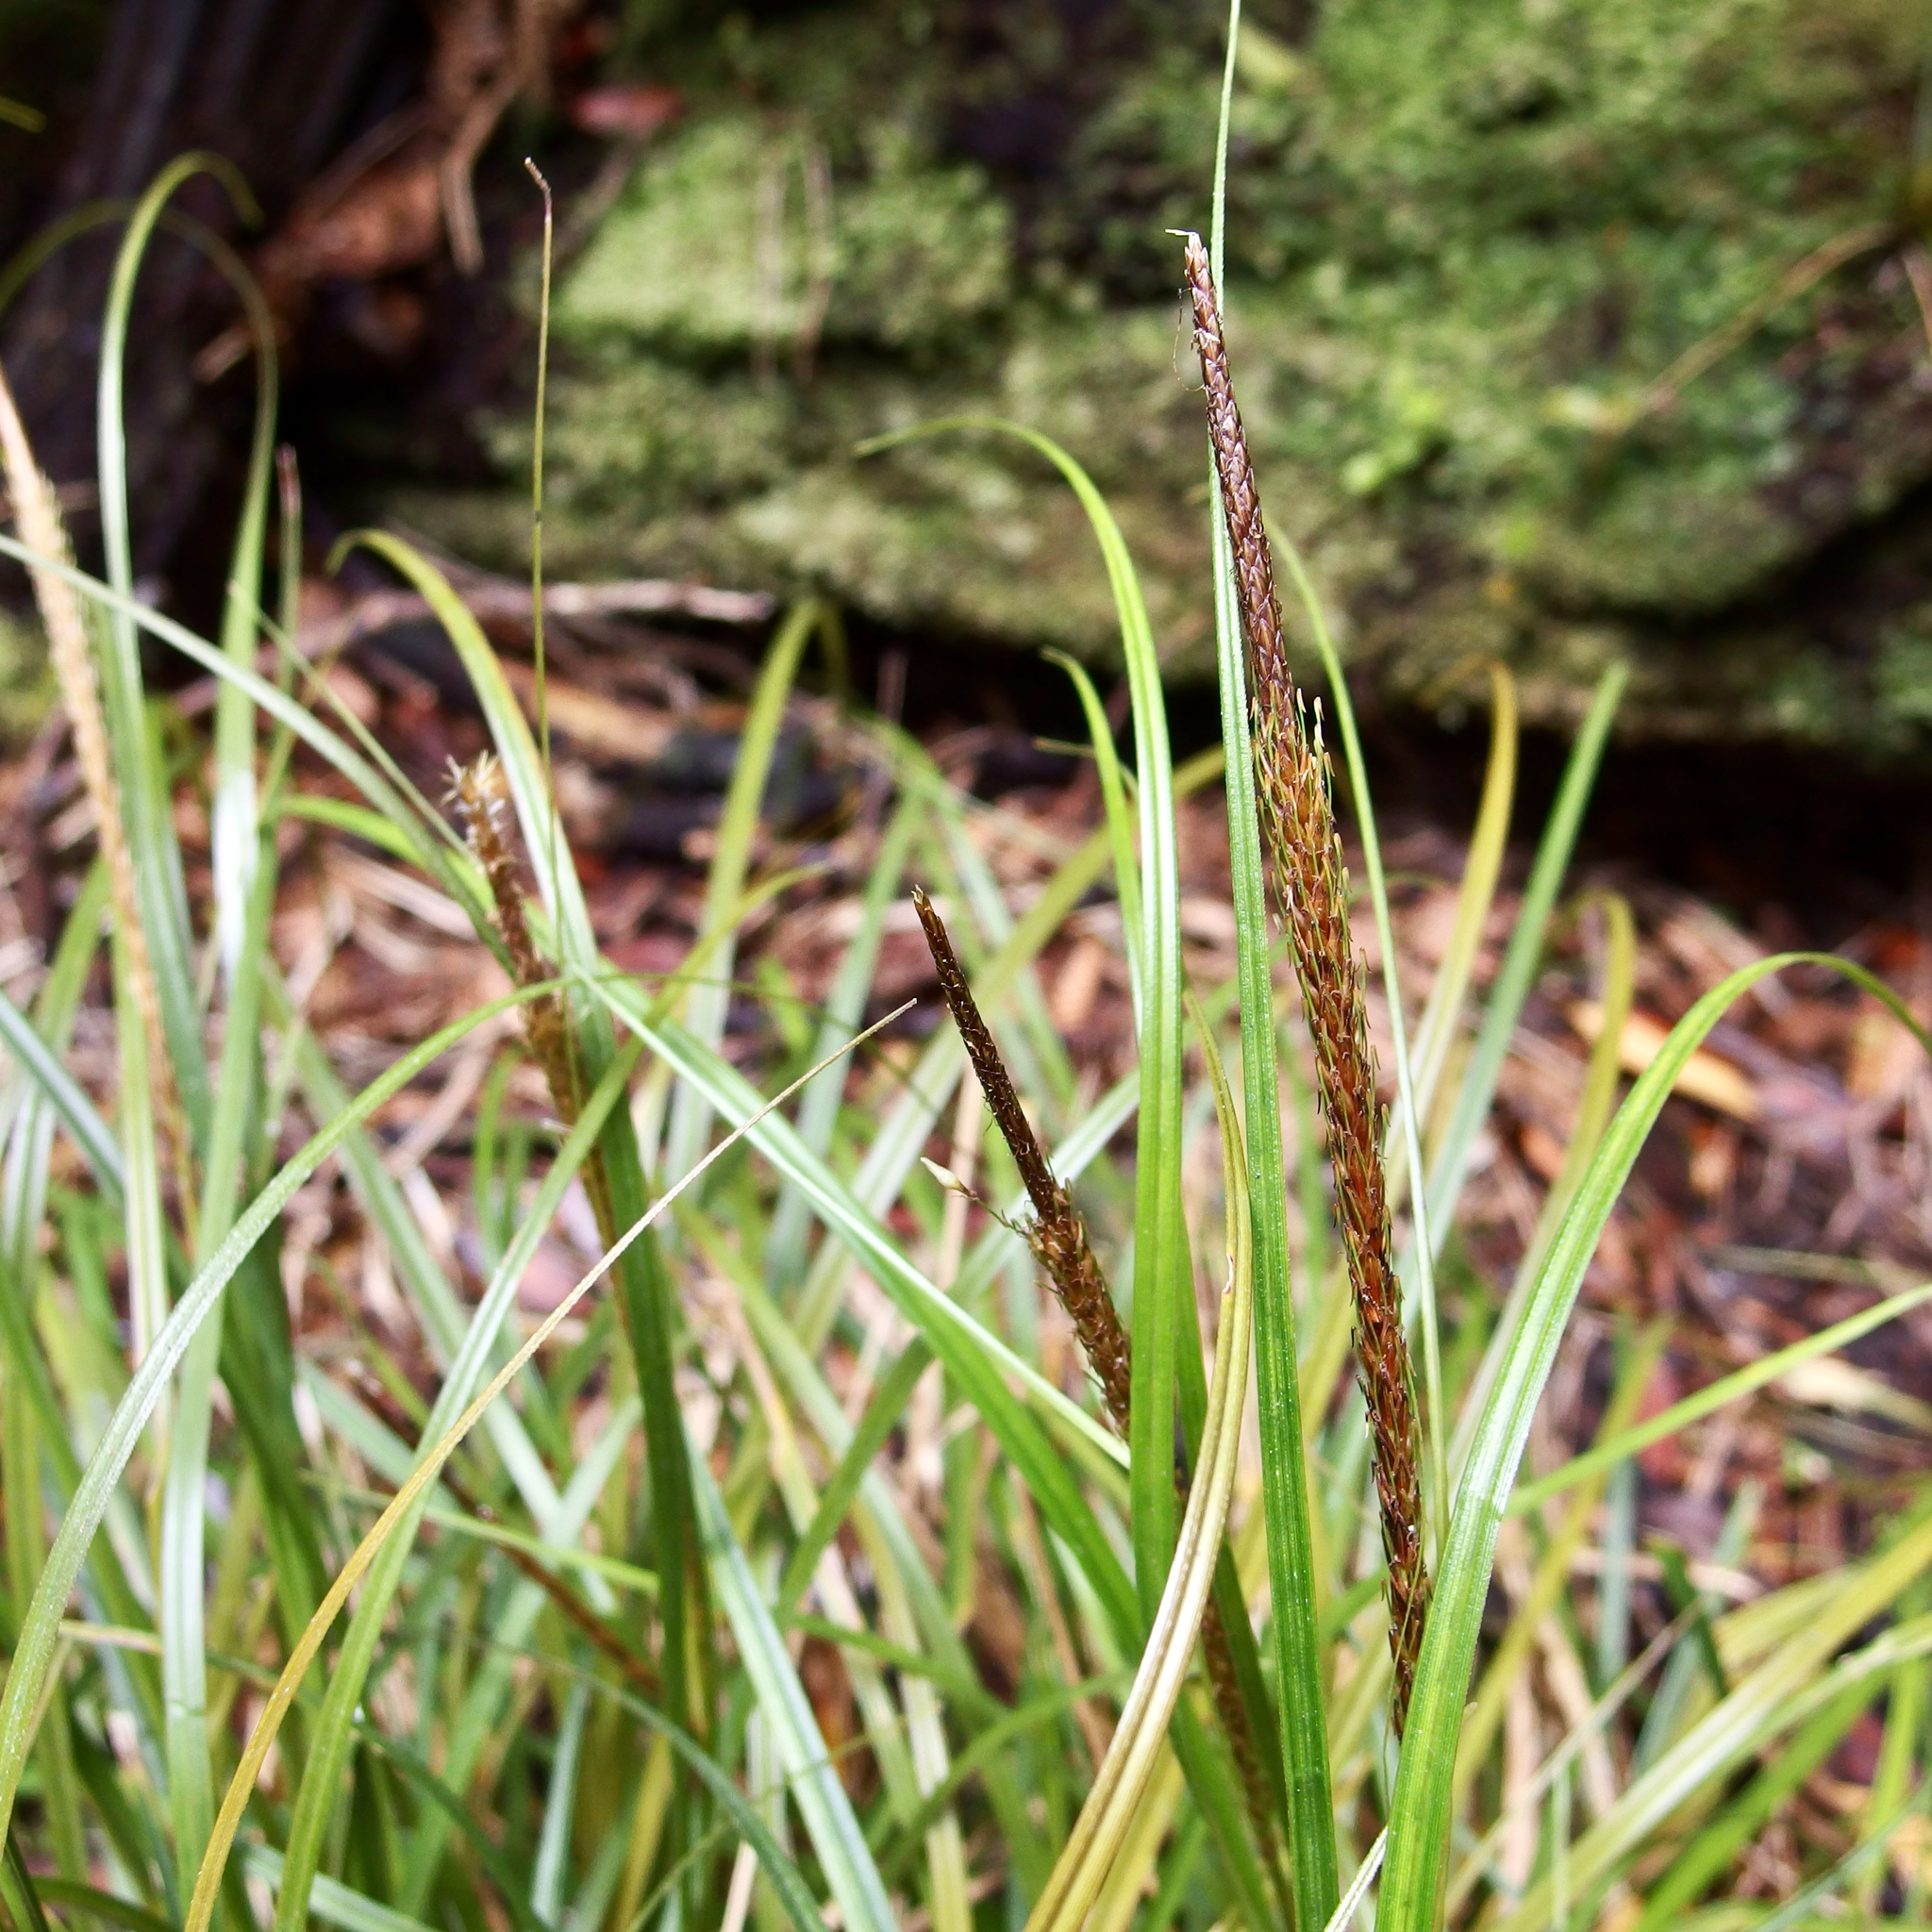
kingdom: Plantae
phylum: Tracheophyta
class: Liliopsida
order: Poales
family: Cyperaceae
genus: Carex
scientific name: Carex uncinata
